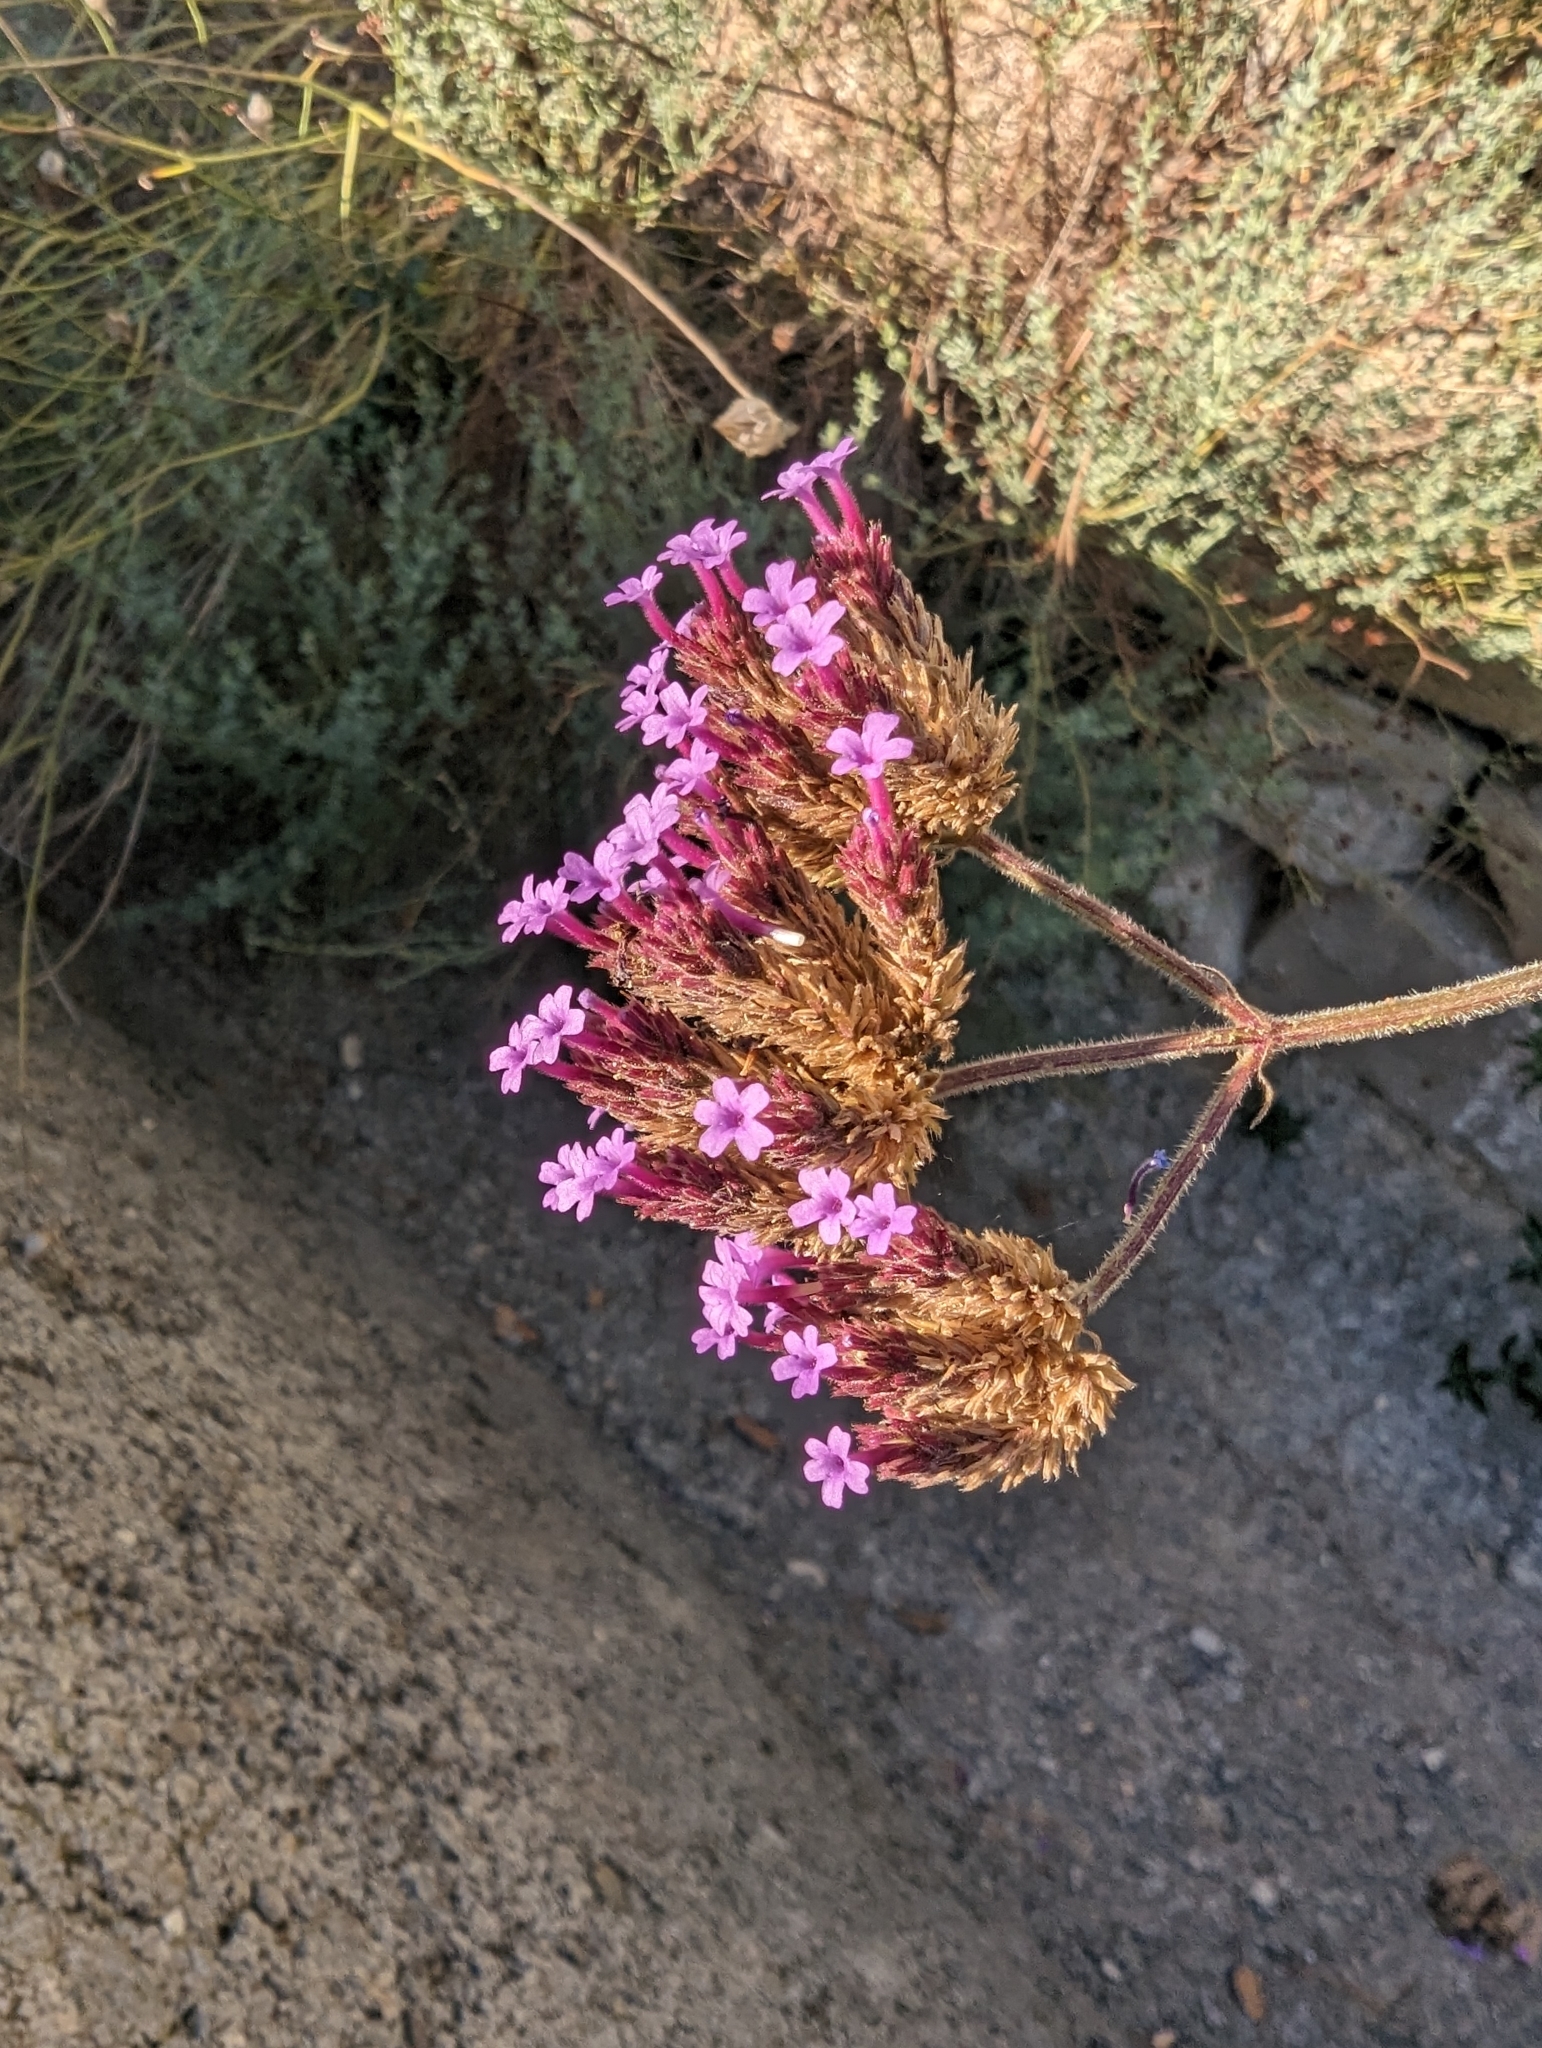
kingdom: Plantae
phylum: Tracheophyta
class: Magnoliopsida
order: Lamiales
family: Verbenaceae
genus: Verbena
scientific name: Verbena bonariensis
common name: Purpletop vervain
